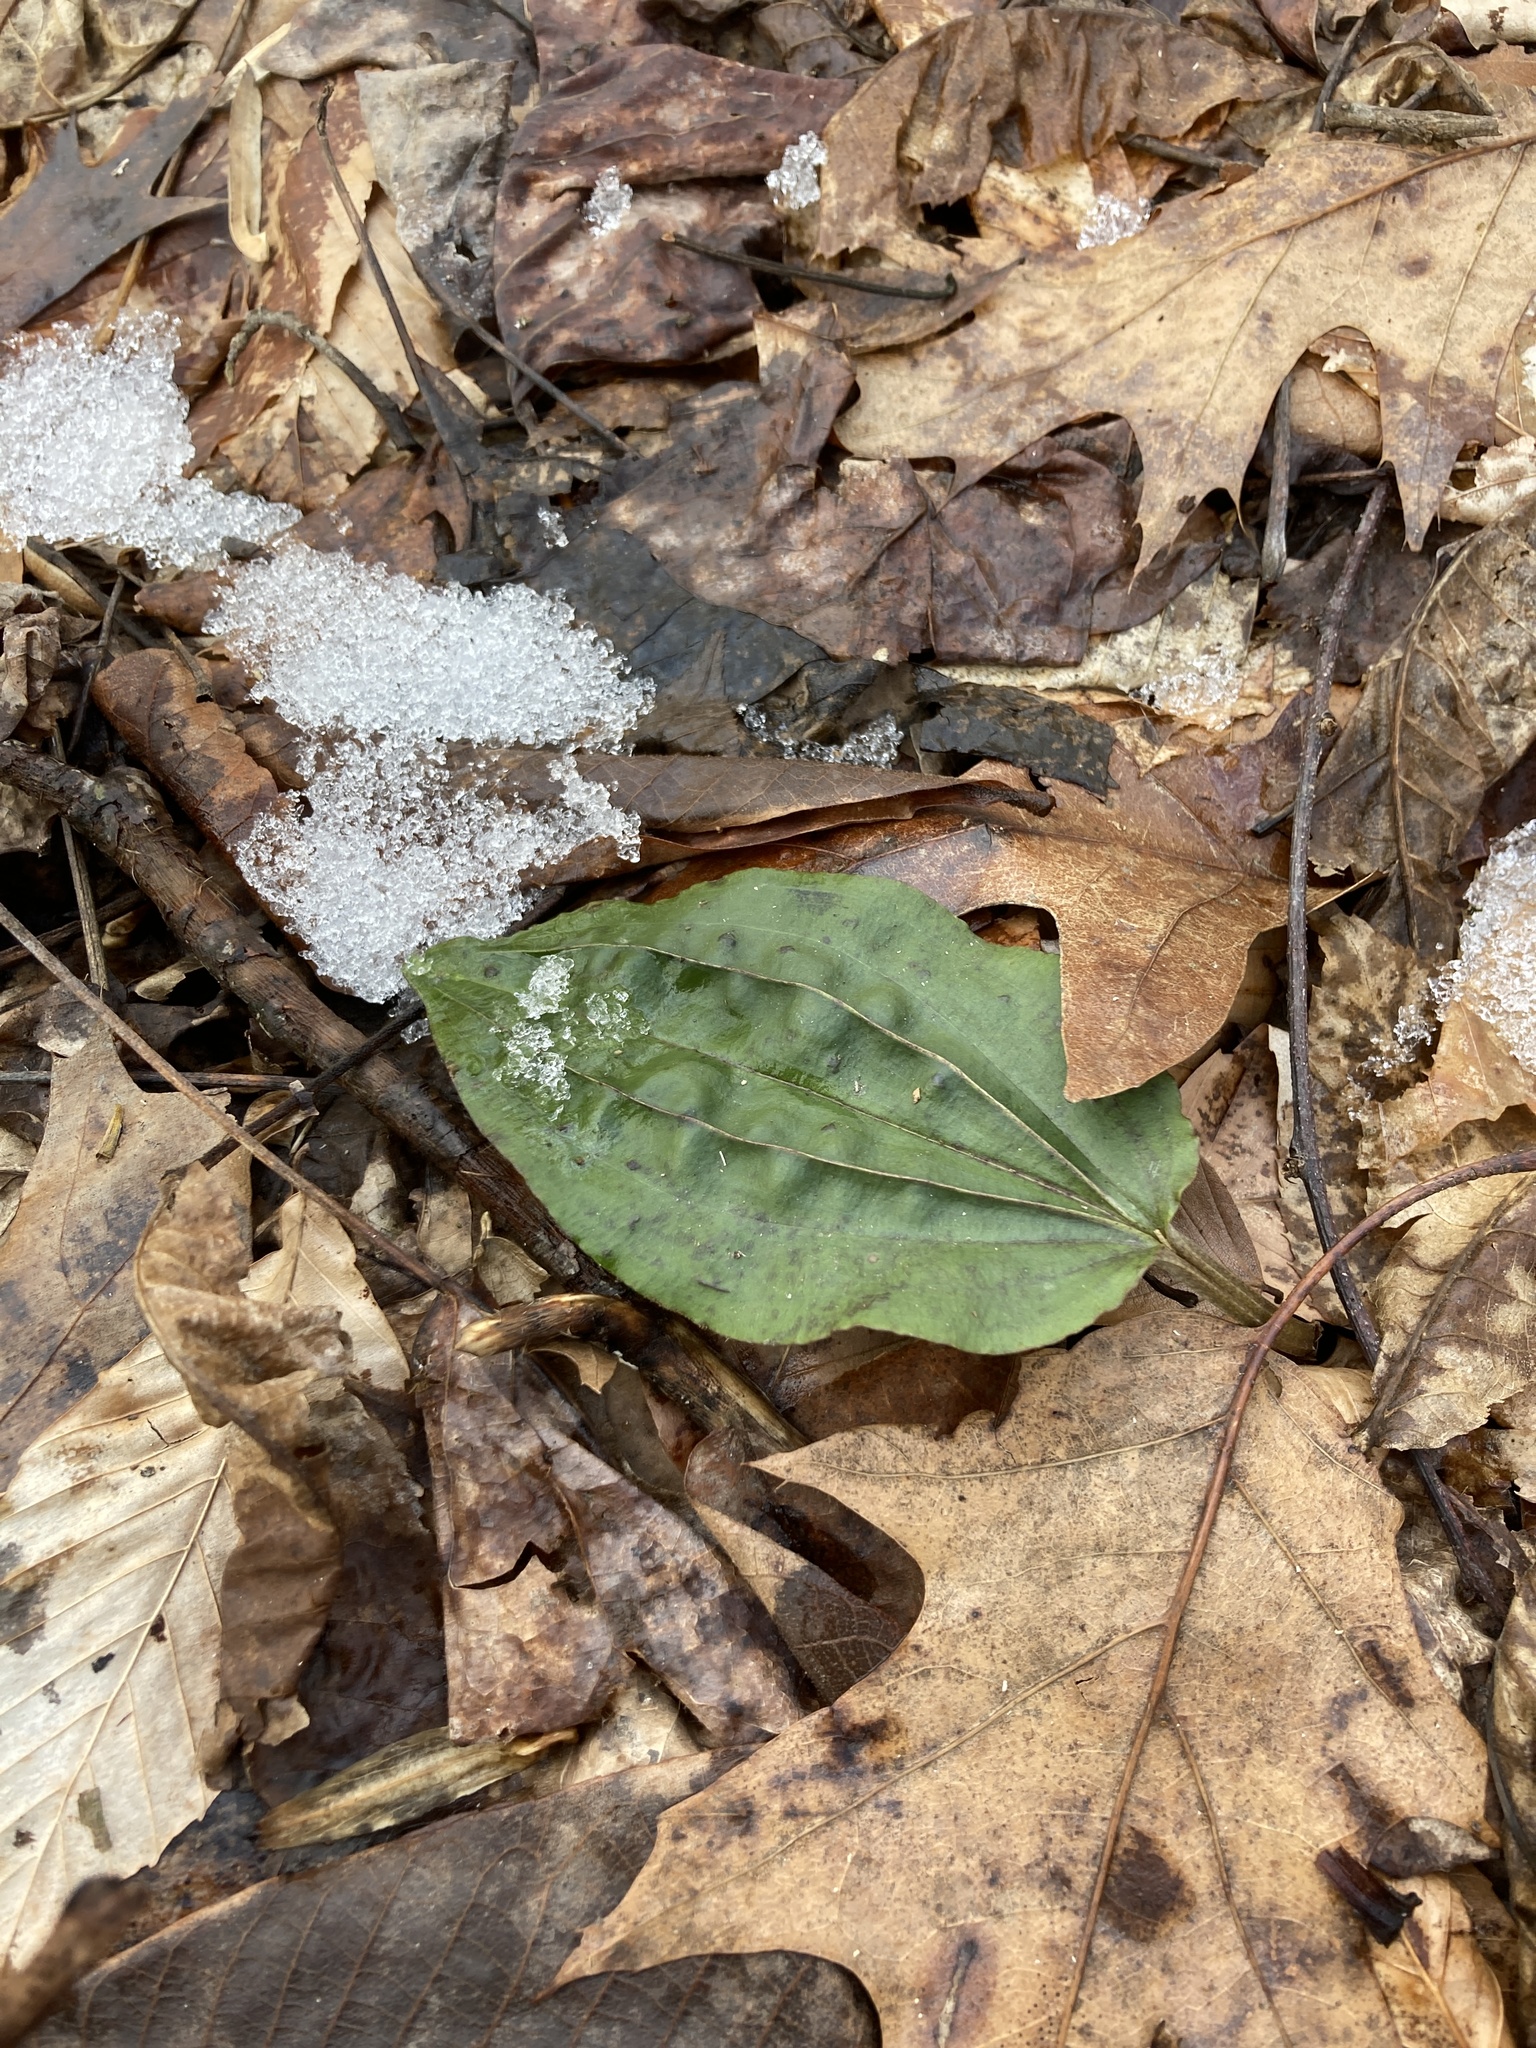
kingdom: Plantae
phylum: Tracheophyta
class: Liliopsida
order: Asparagales
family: Orchidaceae
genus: Tipularia
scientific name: Tipularia discolor
